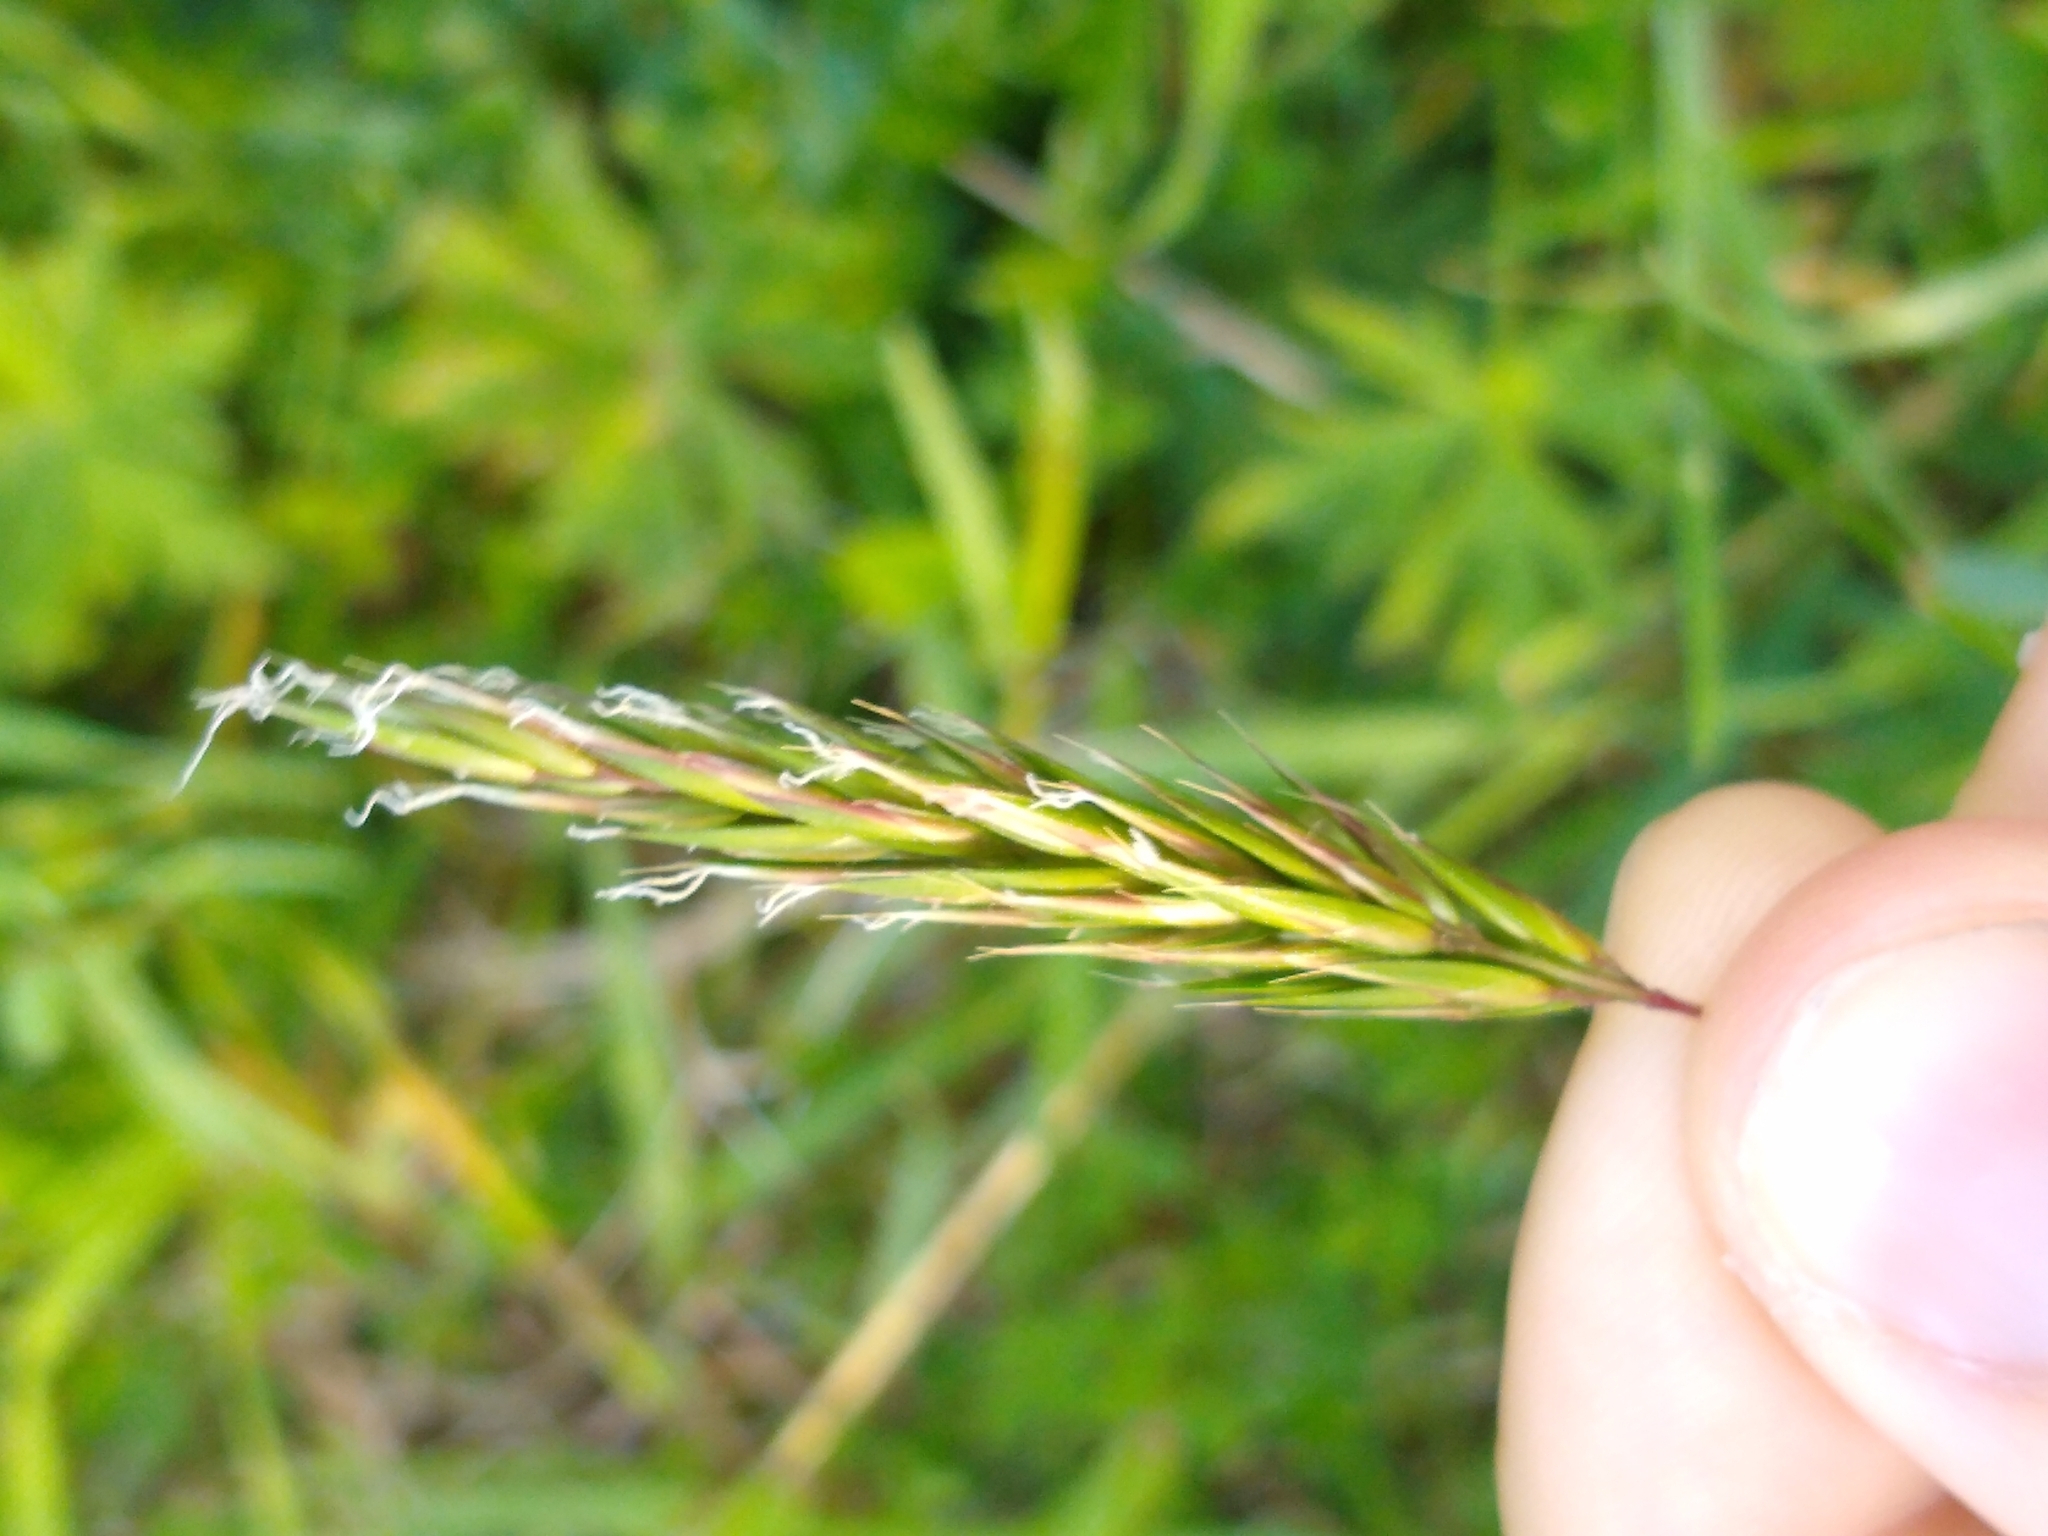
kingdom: Plantae
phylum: Tracheophyta
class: Liliopsida
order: Poales
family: Poaceae
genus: Anthoxanthum
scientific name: Anthoxanthum odoratum
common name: Sweet vernalgrass
